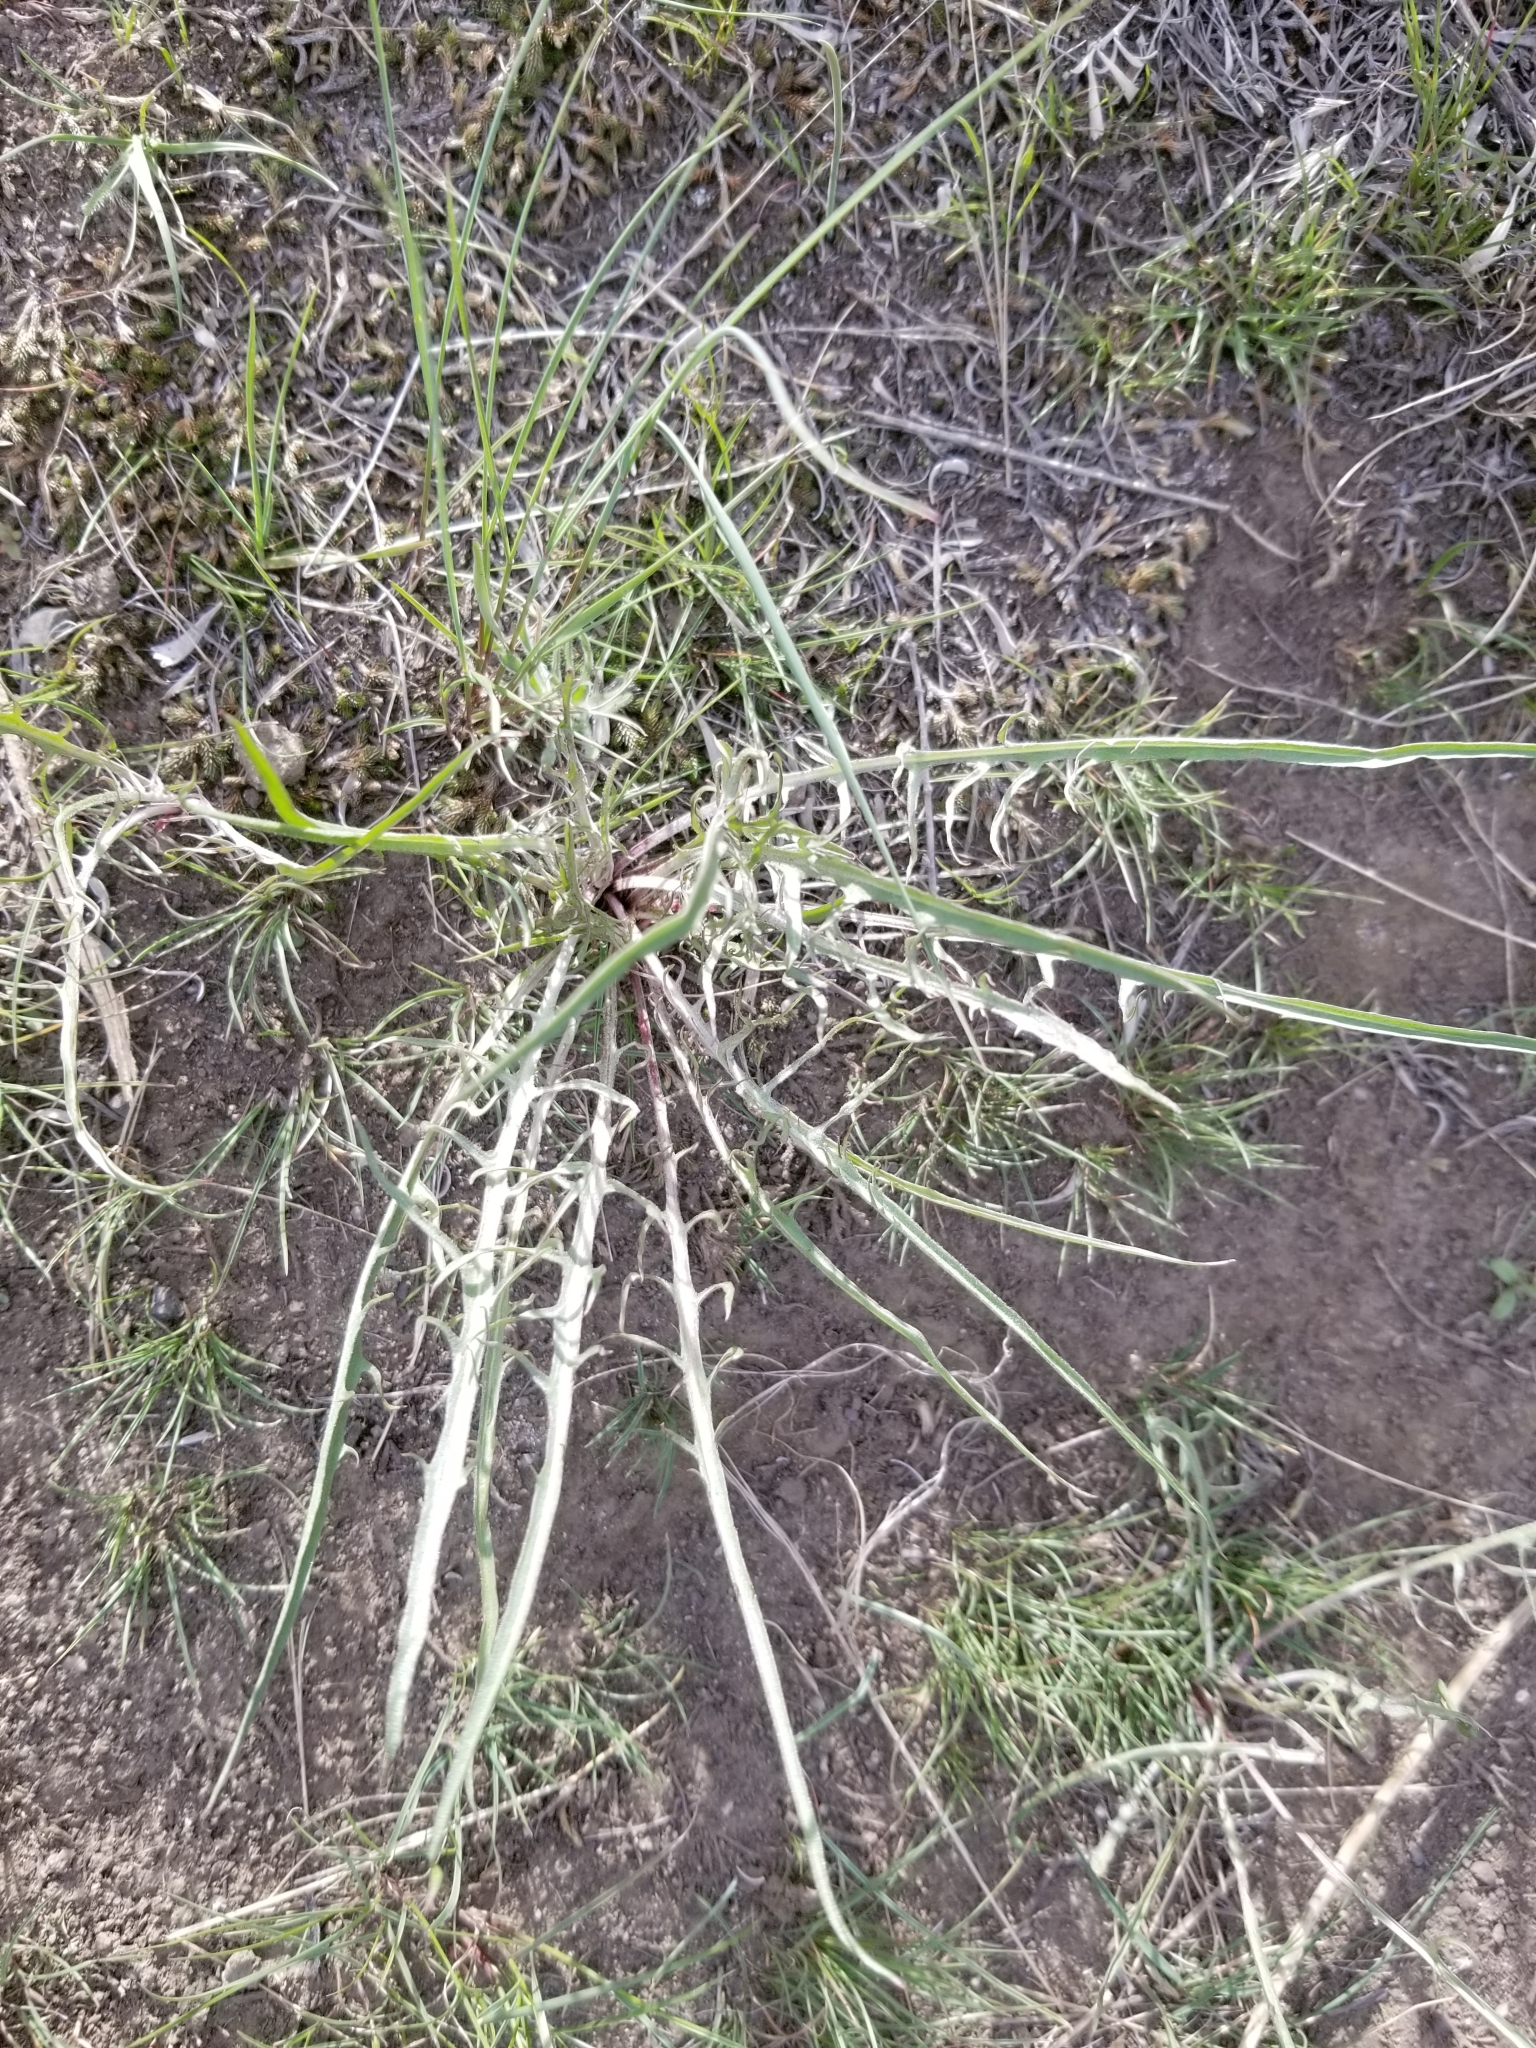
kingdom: Plantae
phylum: Tracheophyta
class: Magnoliopsida
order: Asterales
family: Asteraceae
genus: Crepis
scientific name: Crepis atribarba
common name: Dark hawk's-beard
